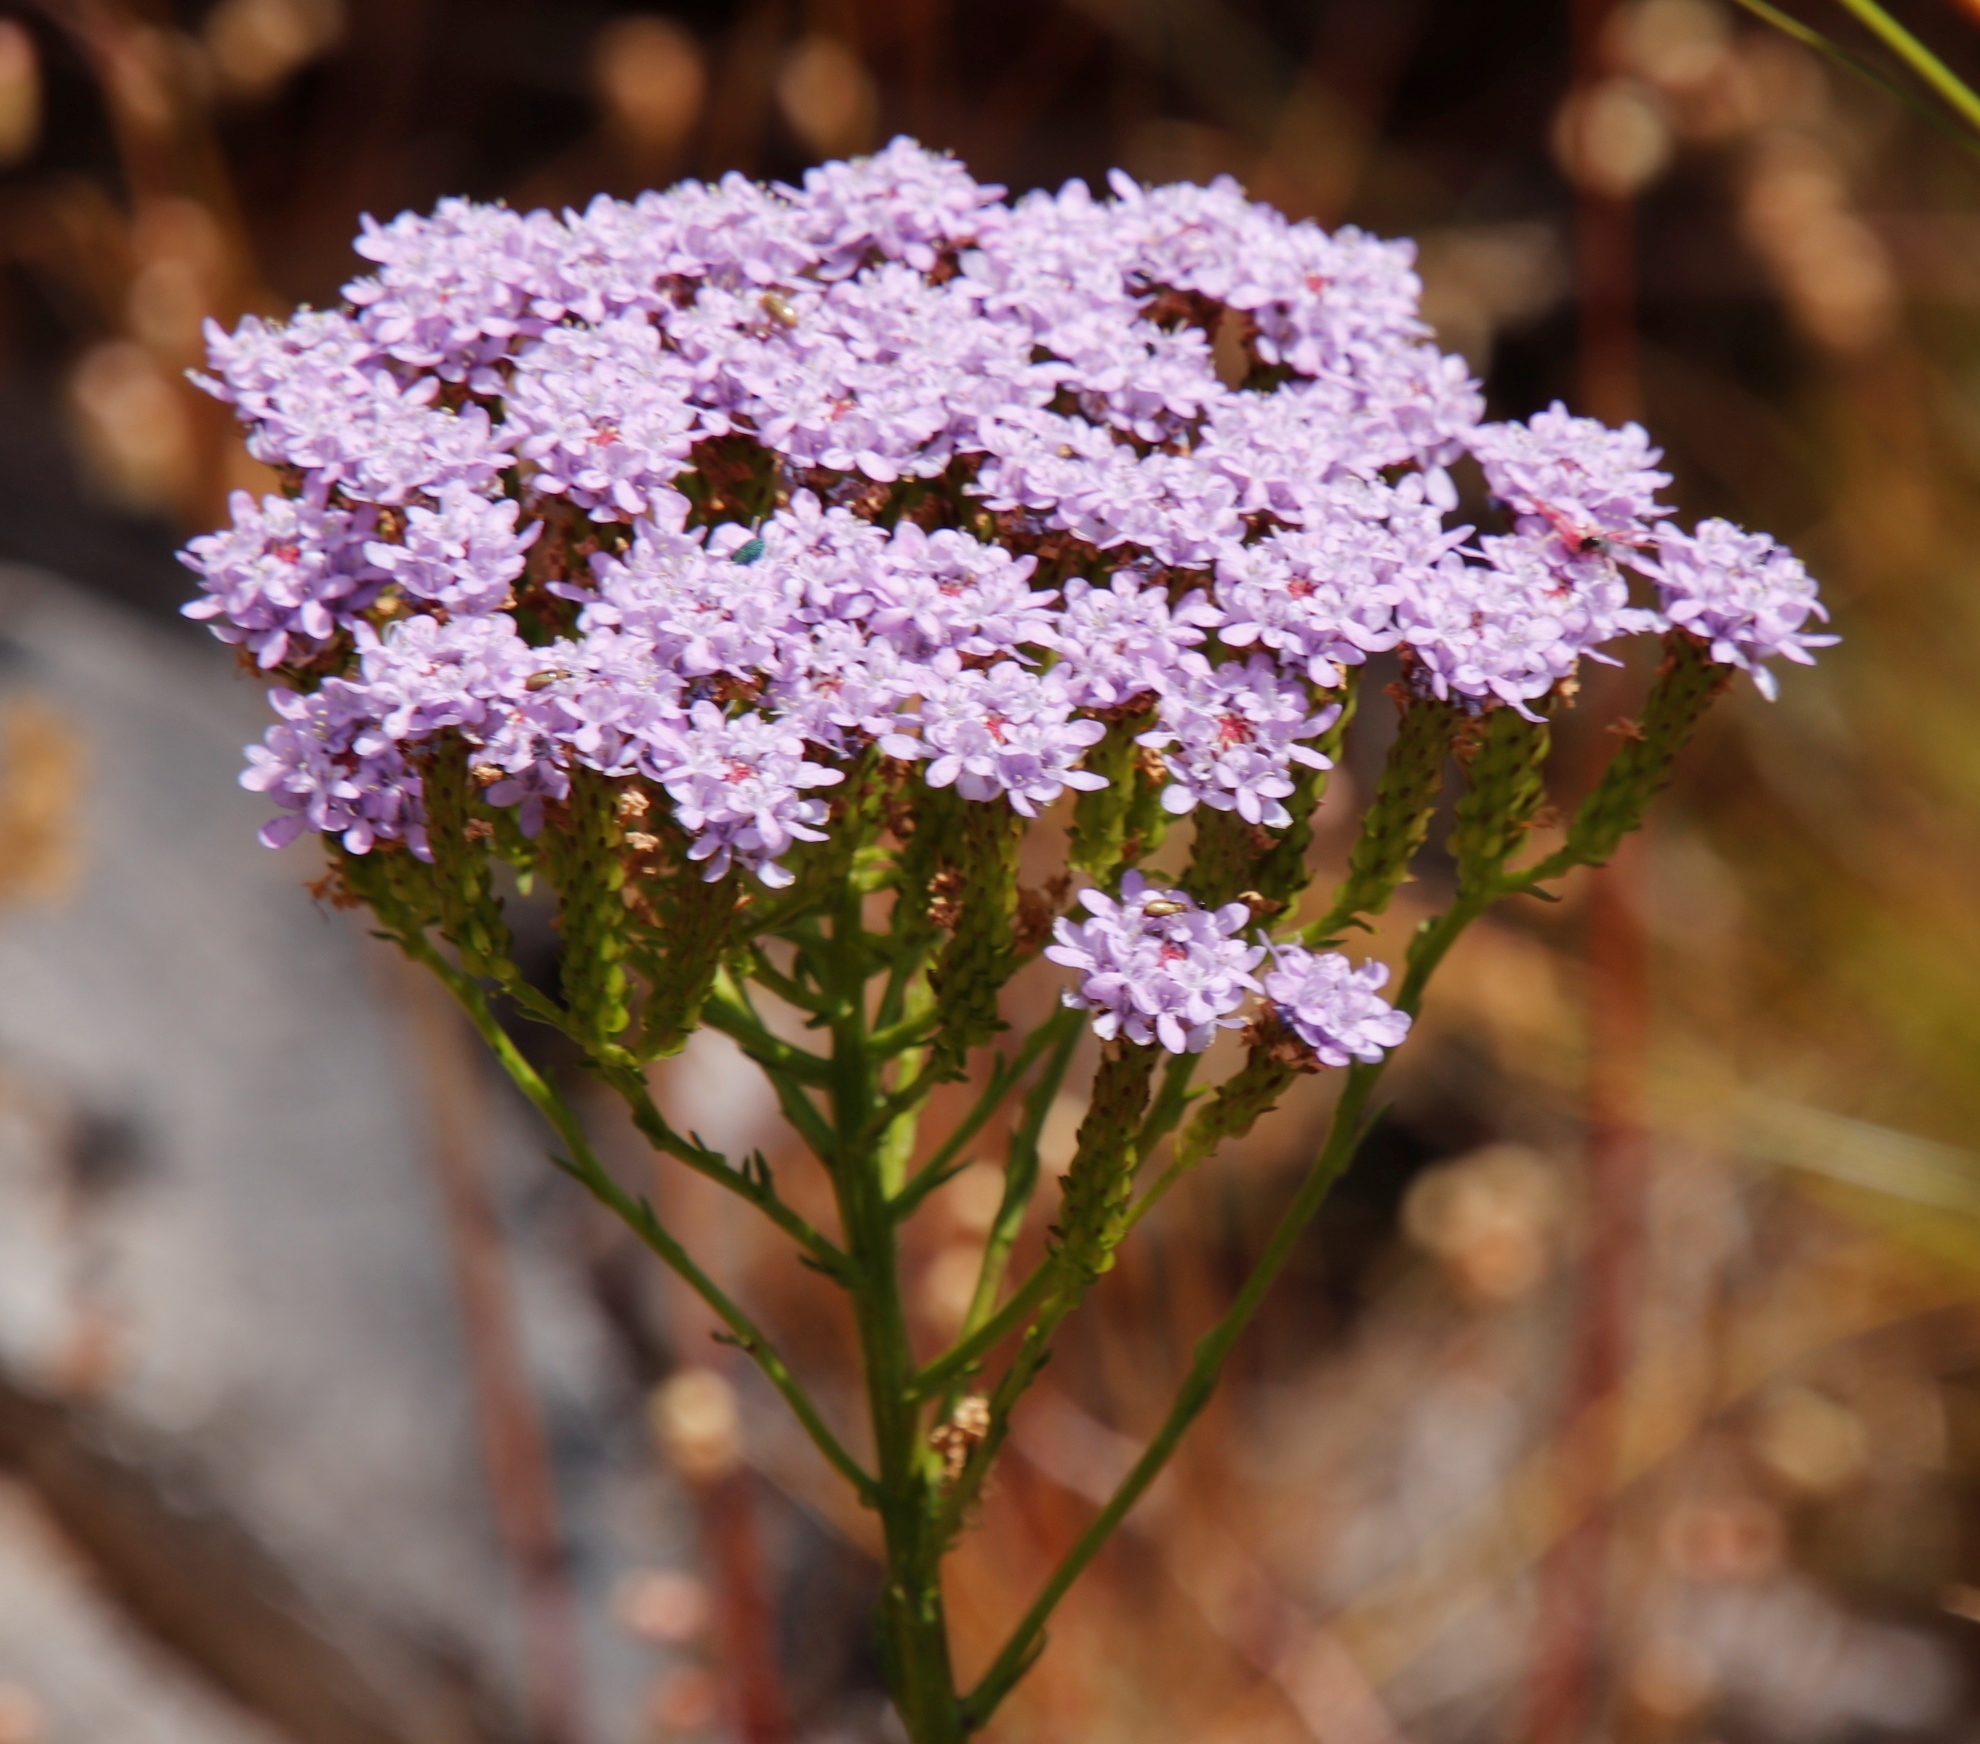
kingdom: Plantae
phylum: Tracheophyta
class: Magnoliopsida
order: Lamiales
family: Scrophulariaceae
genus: Pseudoselago
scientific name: Pseudoselago spuria
